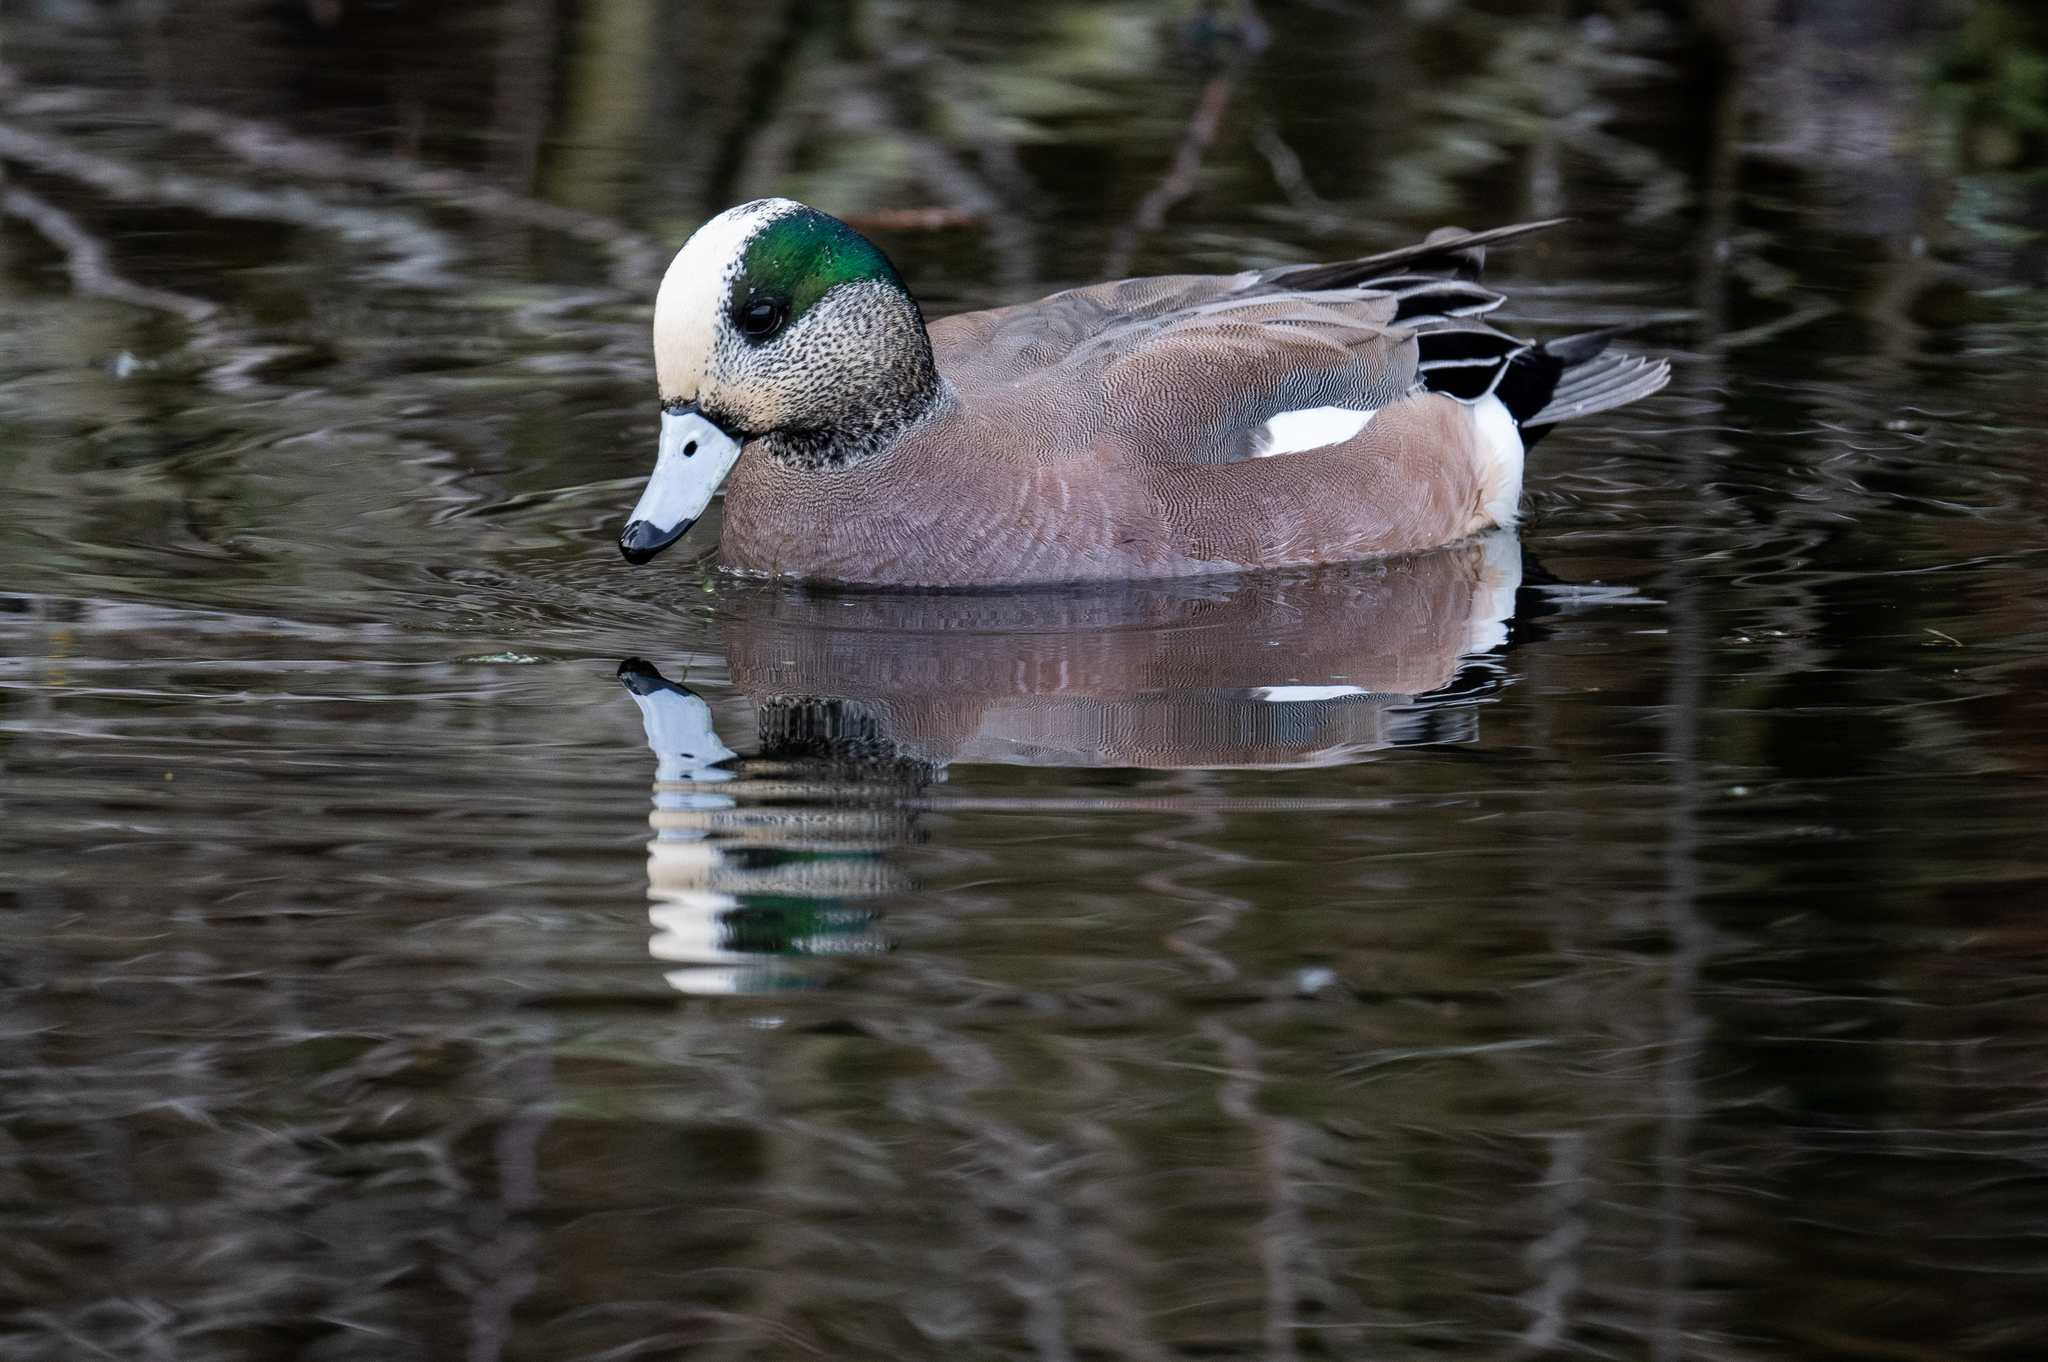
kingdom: Animalia
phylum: Chordata
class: Aves
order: Anseriformes
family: Anatidae
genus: Mareca
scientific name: Mareca americana
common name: American wigeon
